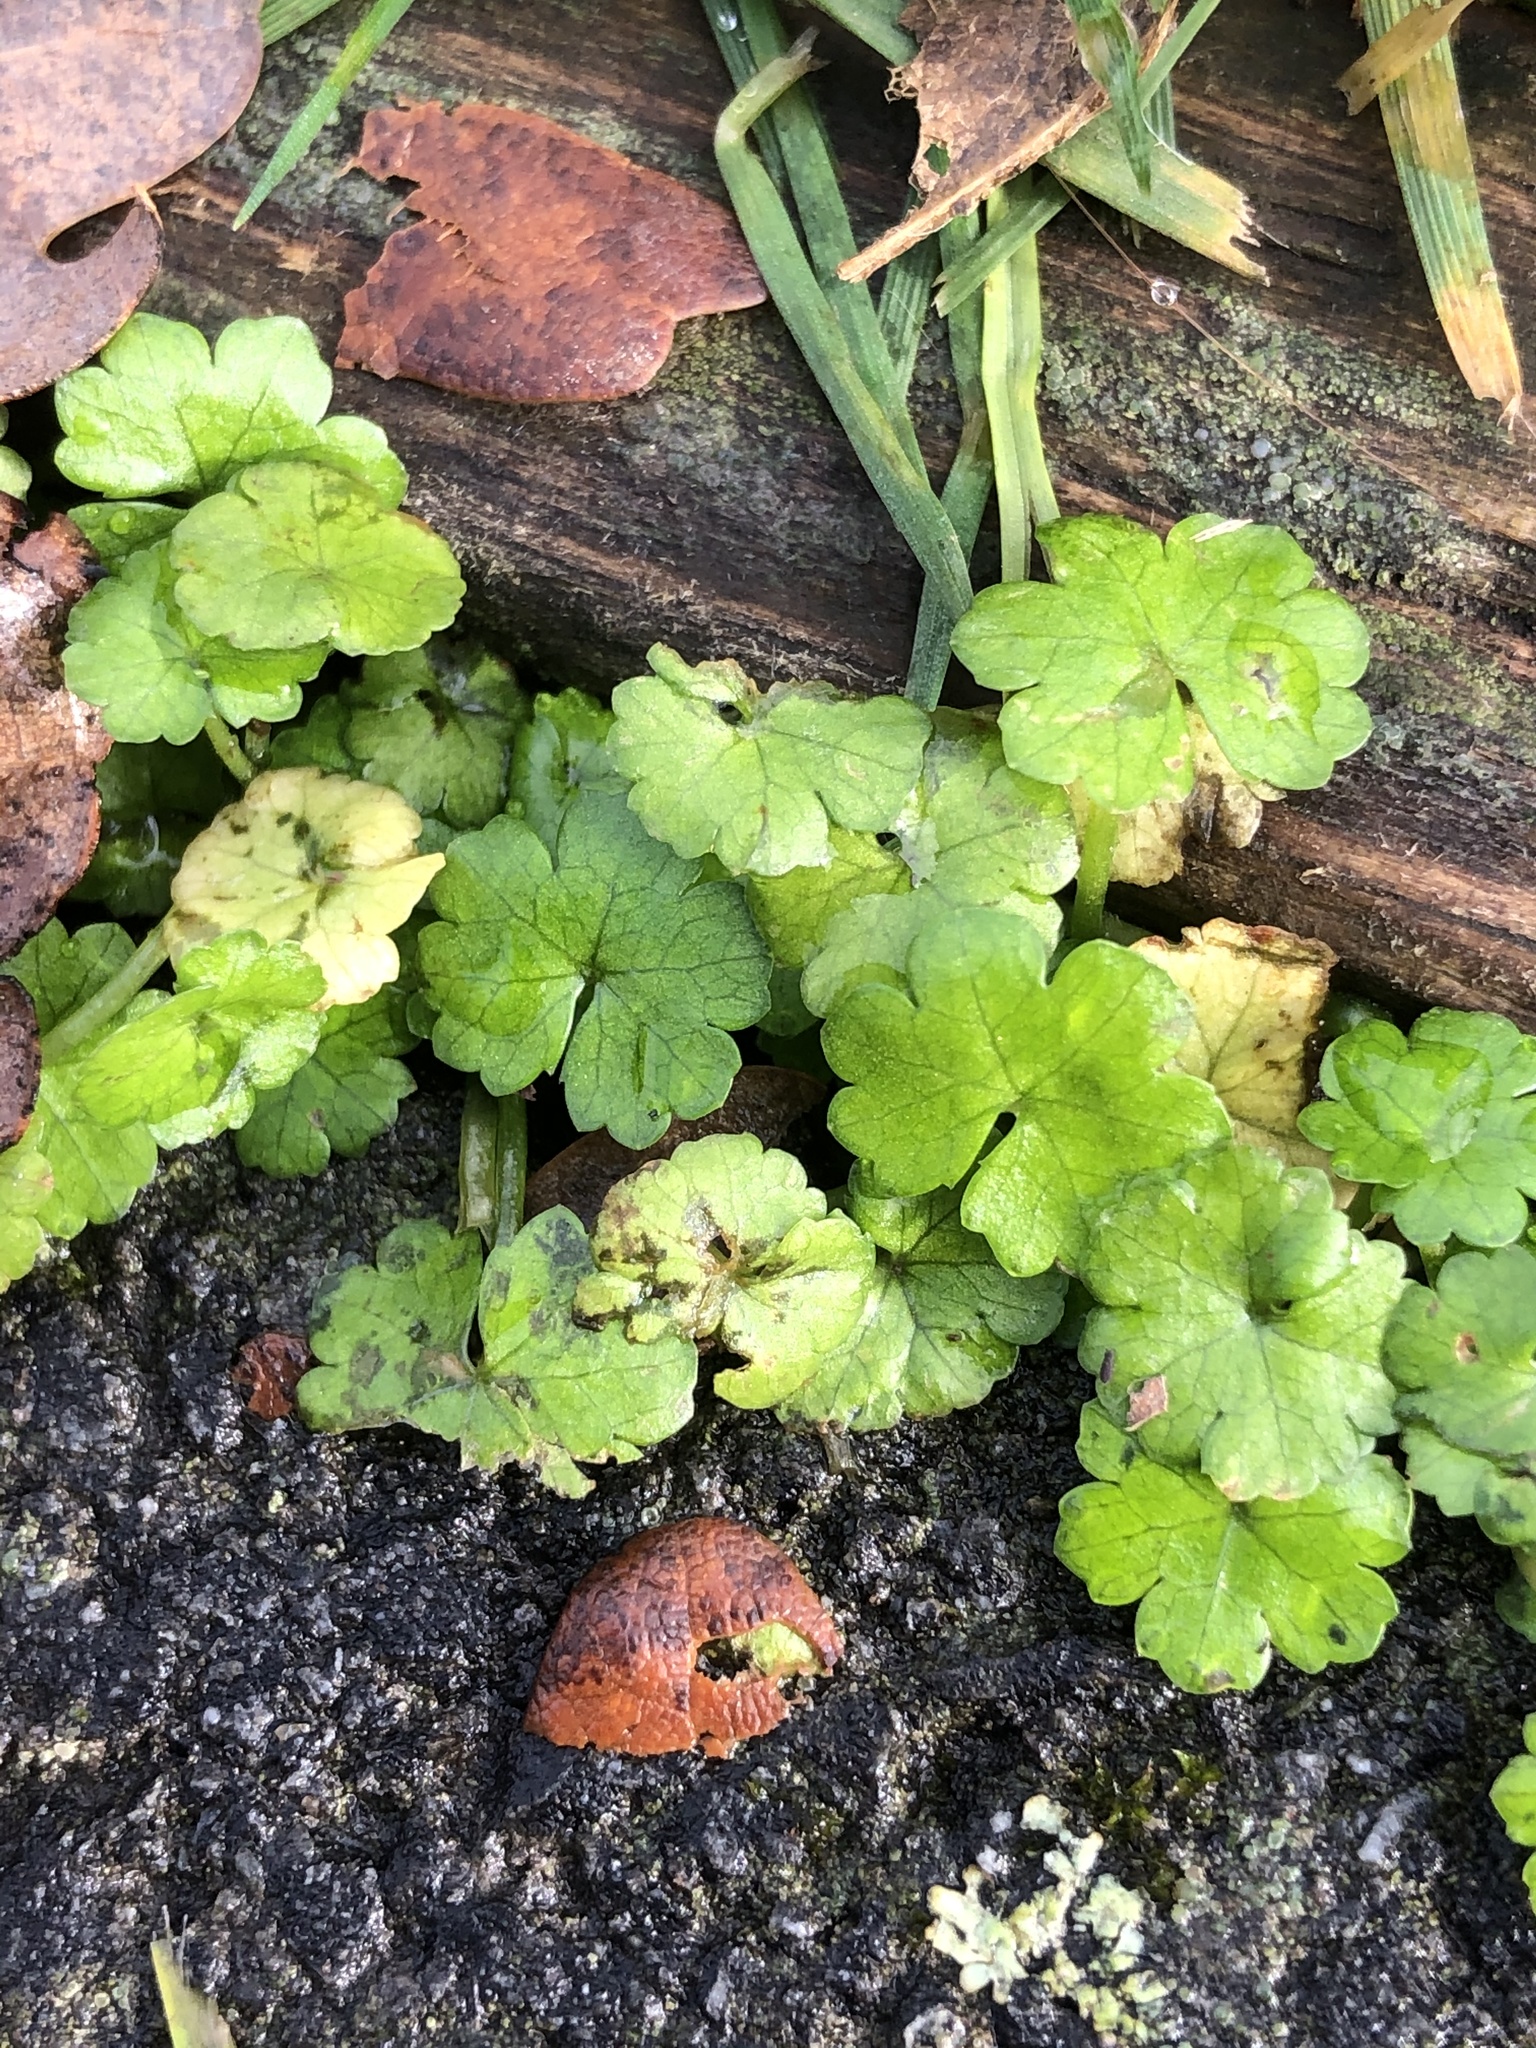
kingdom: Plantae
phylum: Tracheophyta
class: Magnoliopsida
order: Apiales
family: Araliaceae
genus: Hydrocotyle
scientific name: Hydrocotyle heteromeria
